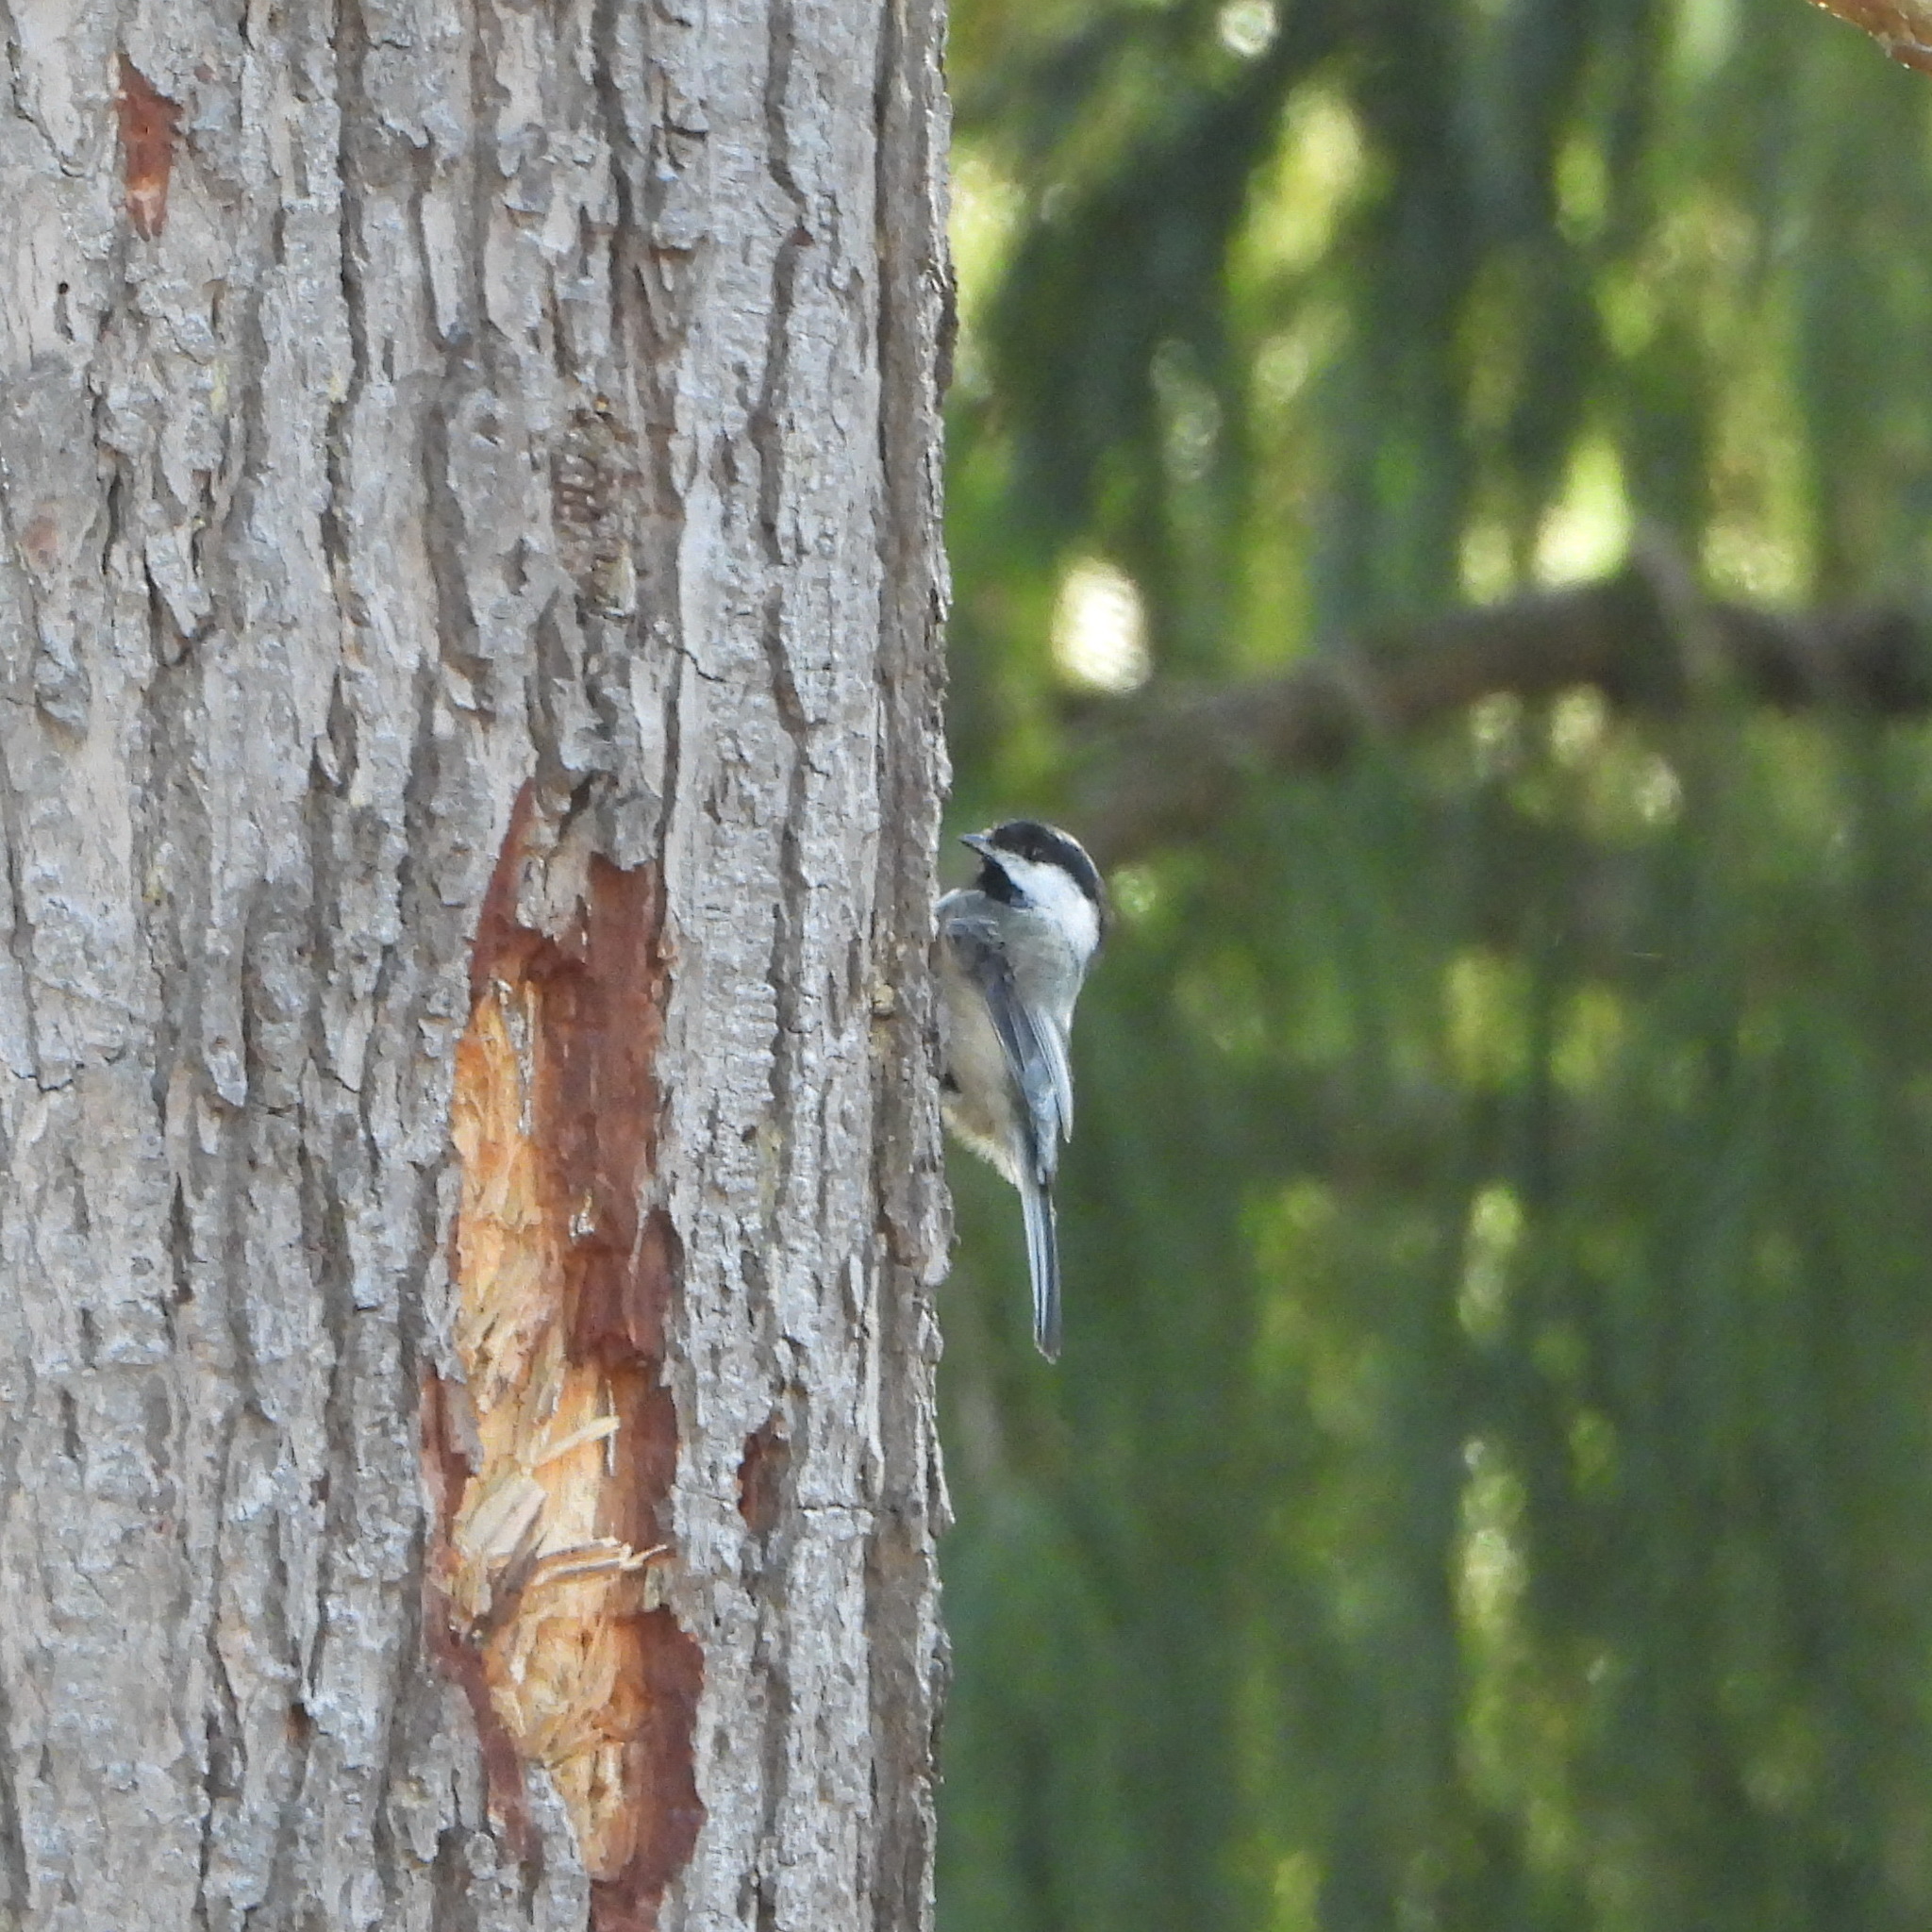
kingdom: Animalia
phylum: Chordata
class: Aves
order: Passeriformes
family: Paridae
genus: Poecile
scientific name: Poecile atricapillus
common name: Black-capped chickadee
